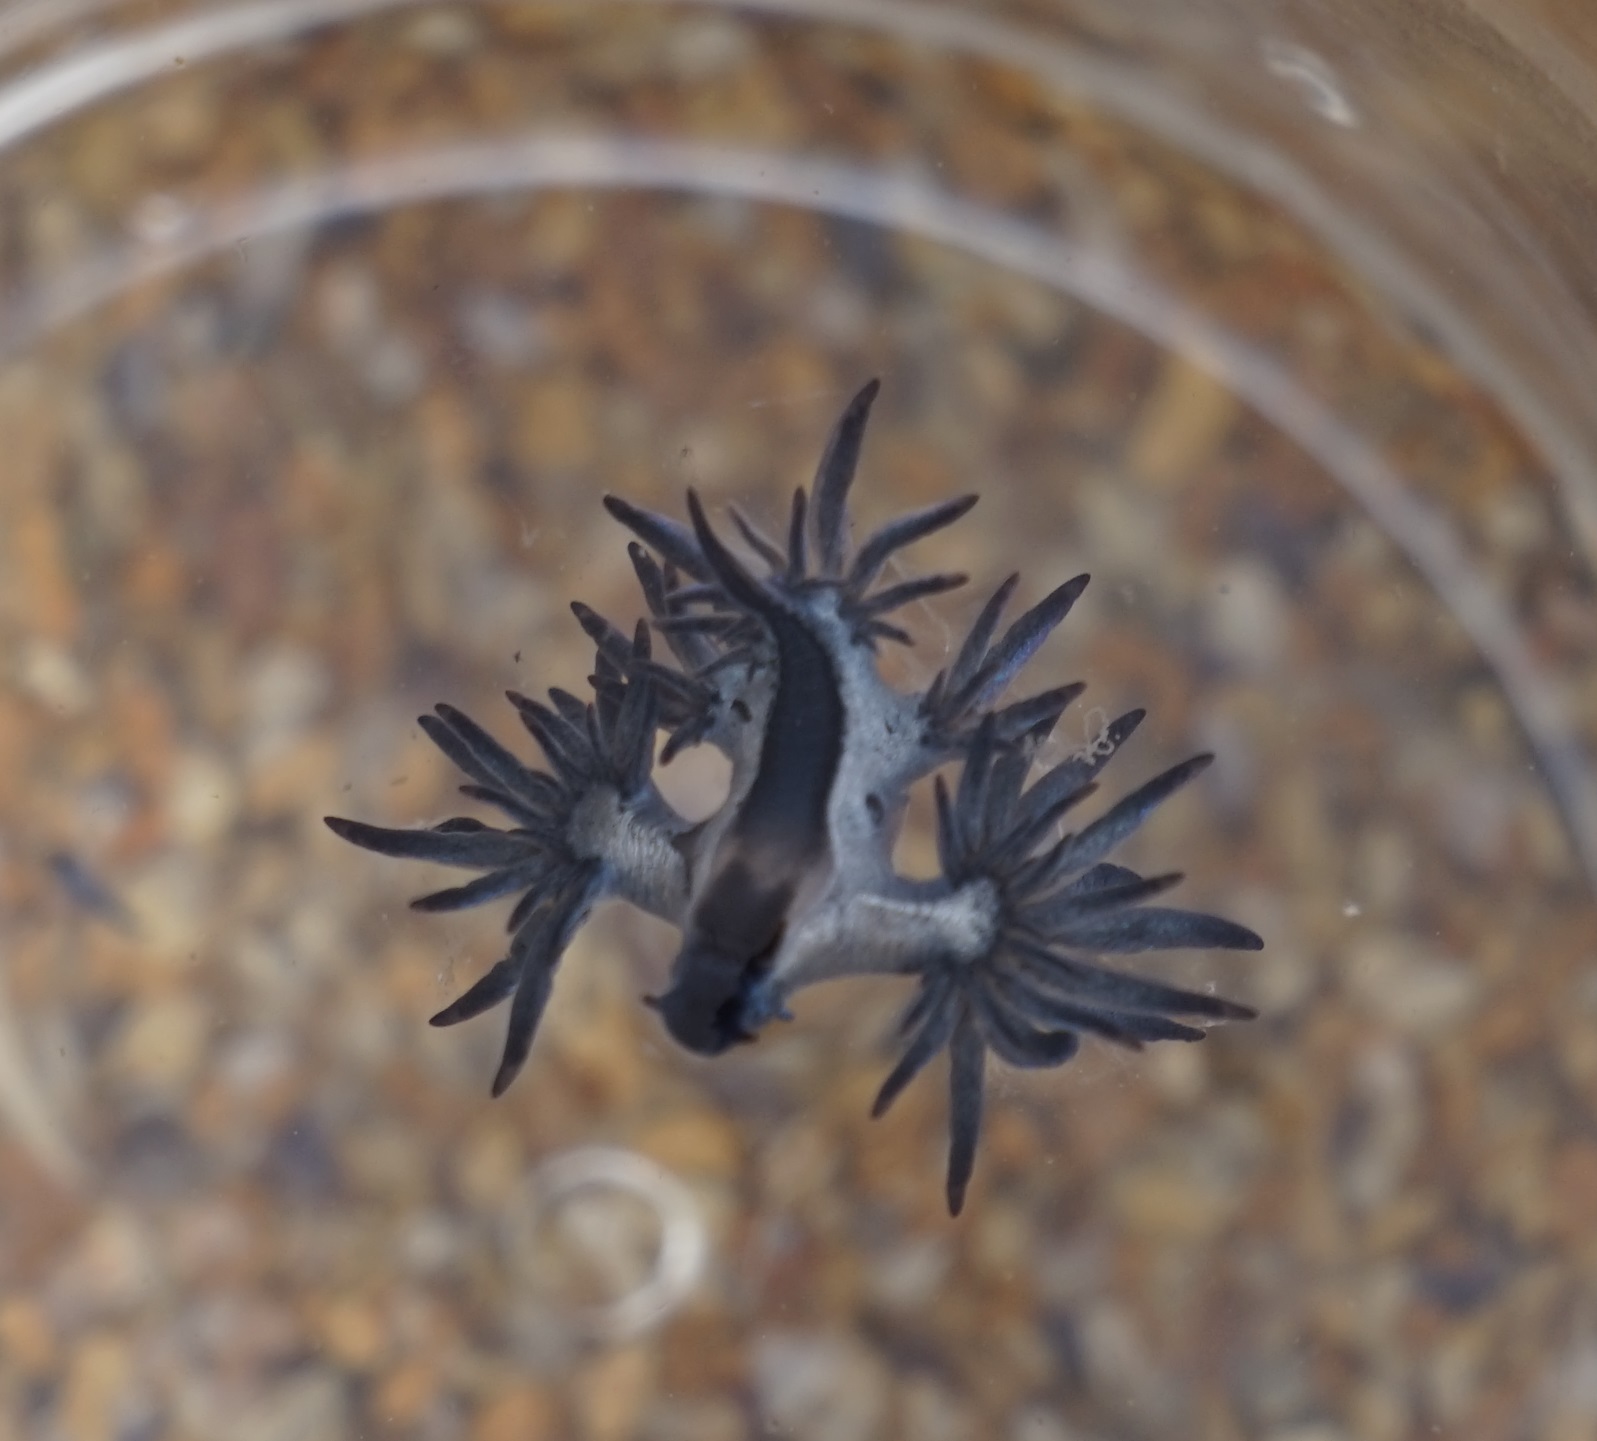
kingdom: Animalia
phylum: Mollusca
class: Gastropoda
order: Nudibranchia
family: Glaucidae
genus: Glaucilla
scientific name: Glaucilla bennettae
